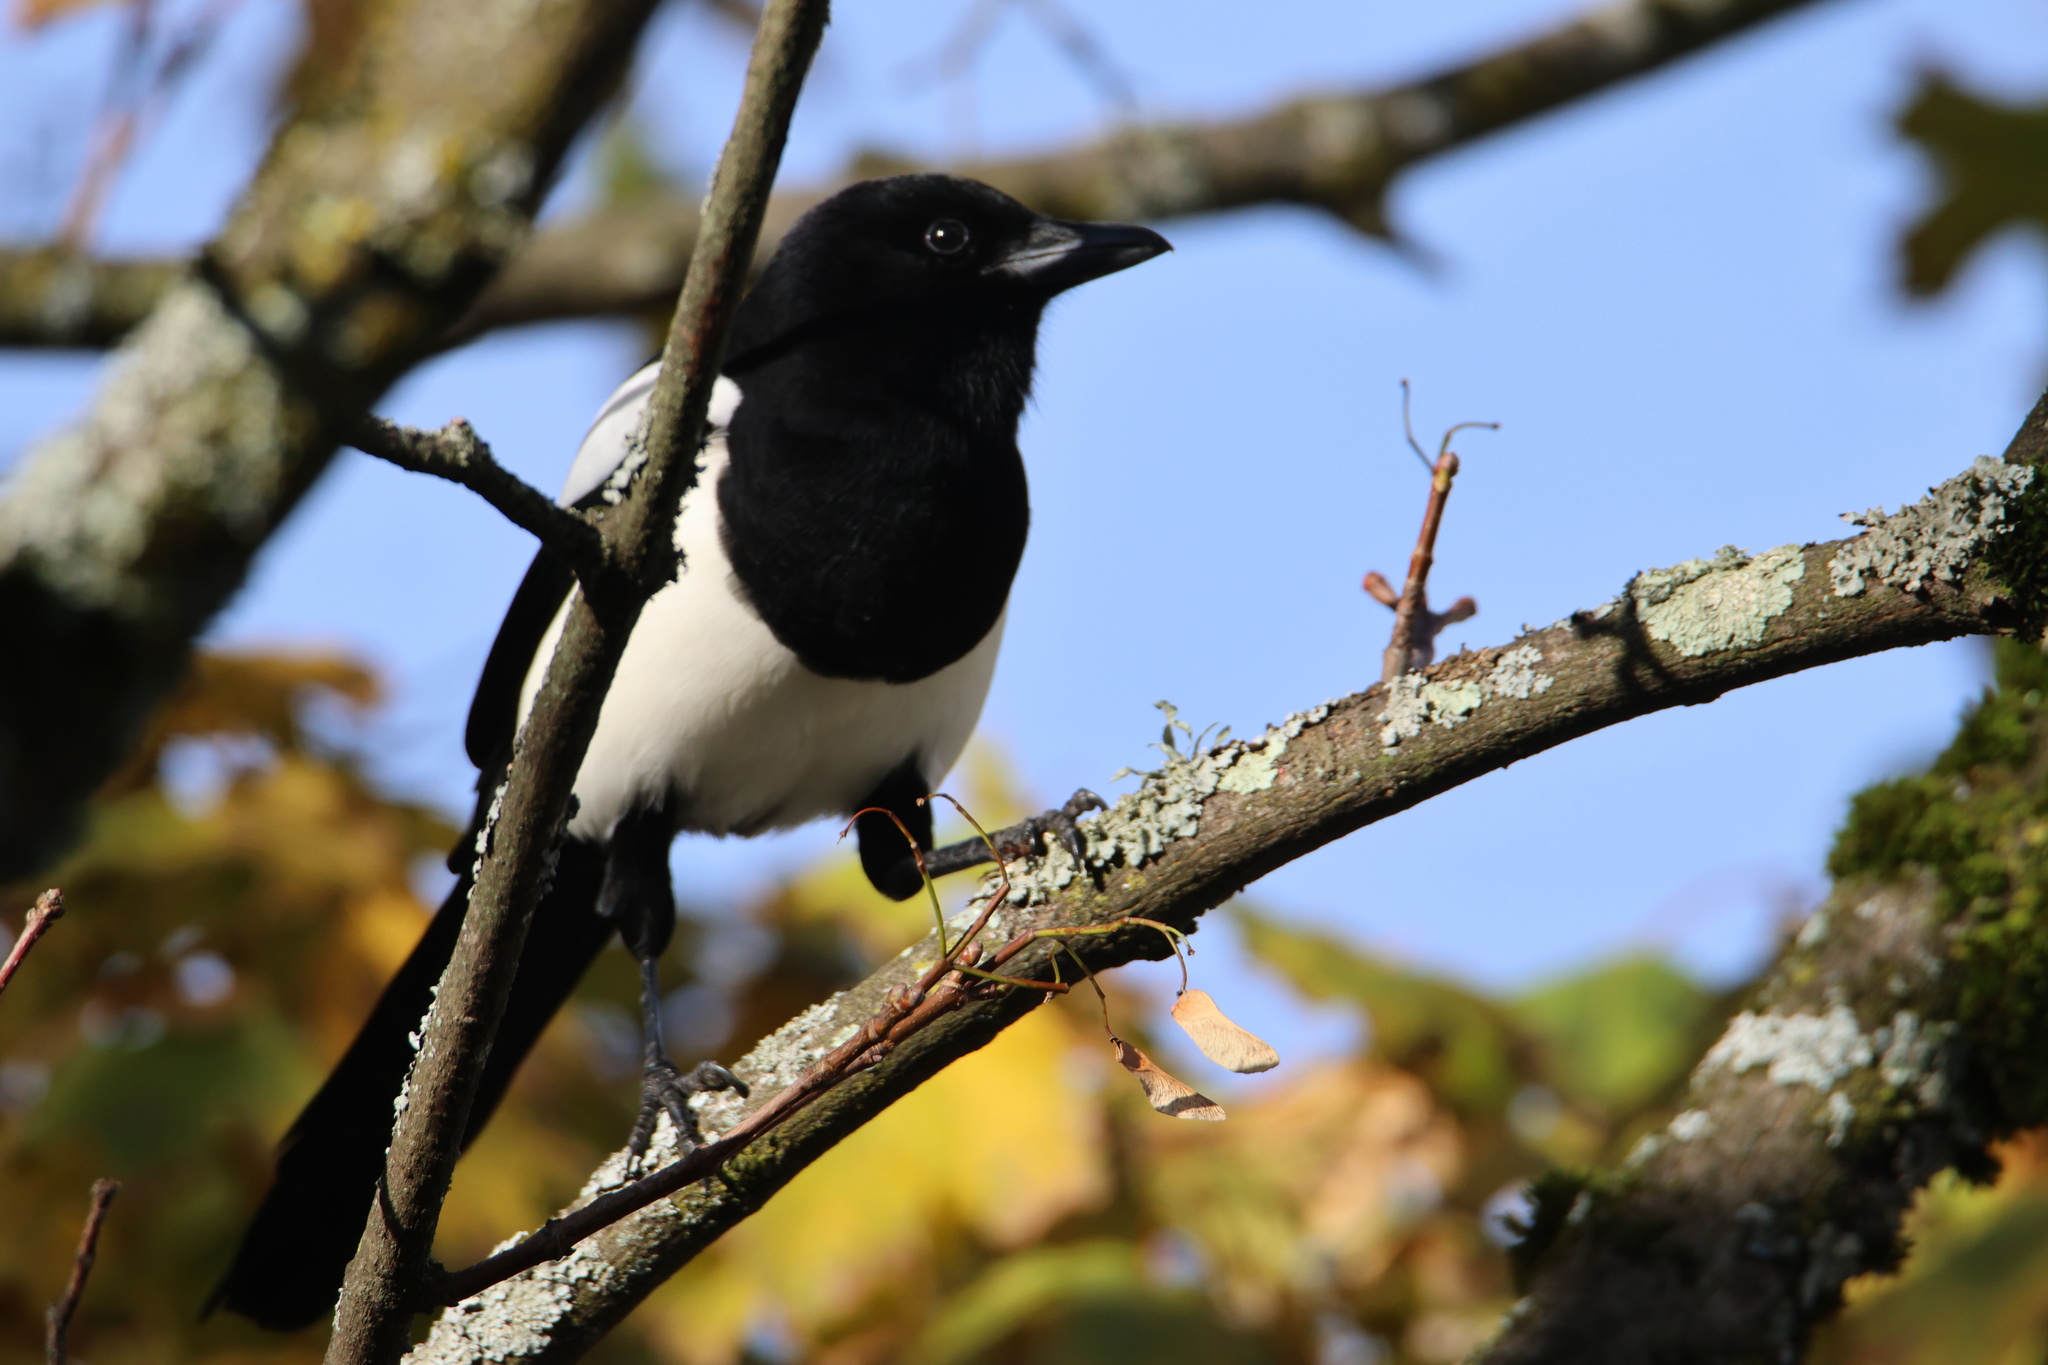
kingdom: Animalia
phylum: Chordata
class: Aves
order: Passeriformes
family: Corvidae
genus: Pica
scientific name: Pica pica
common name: Eurasian magpie
